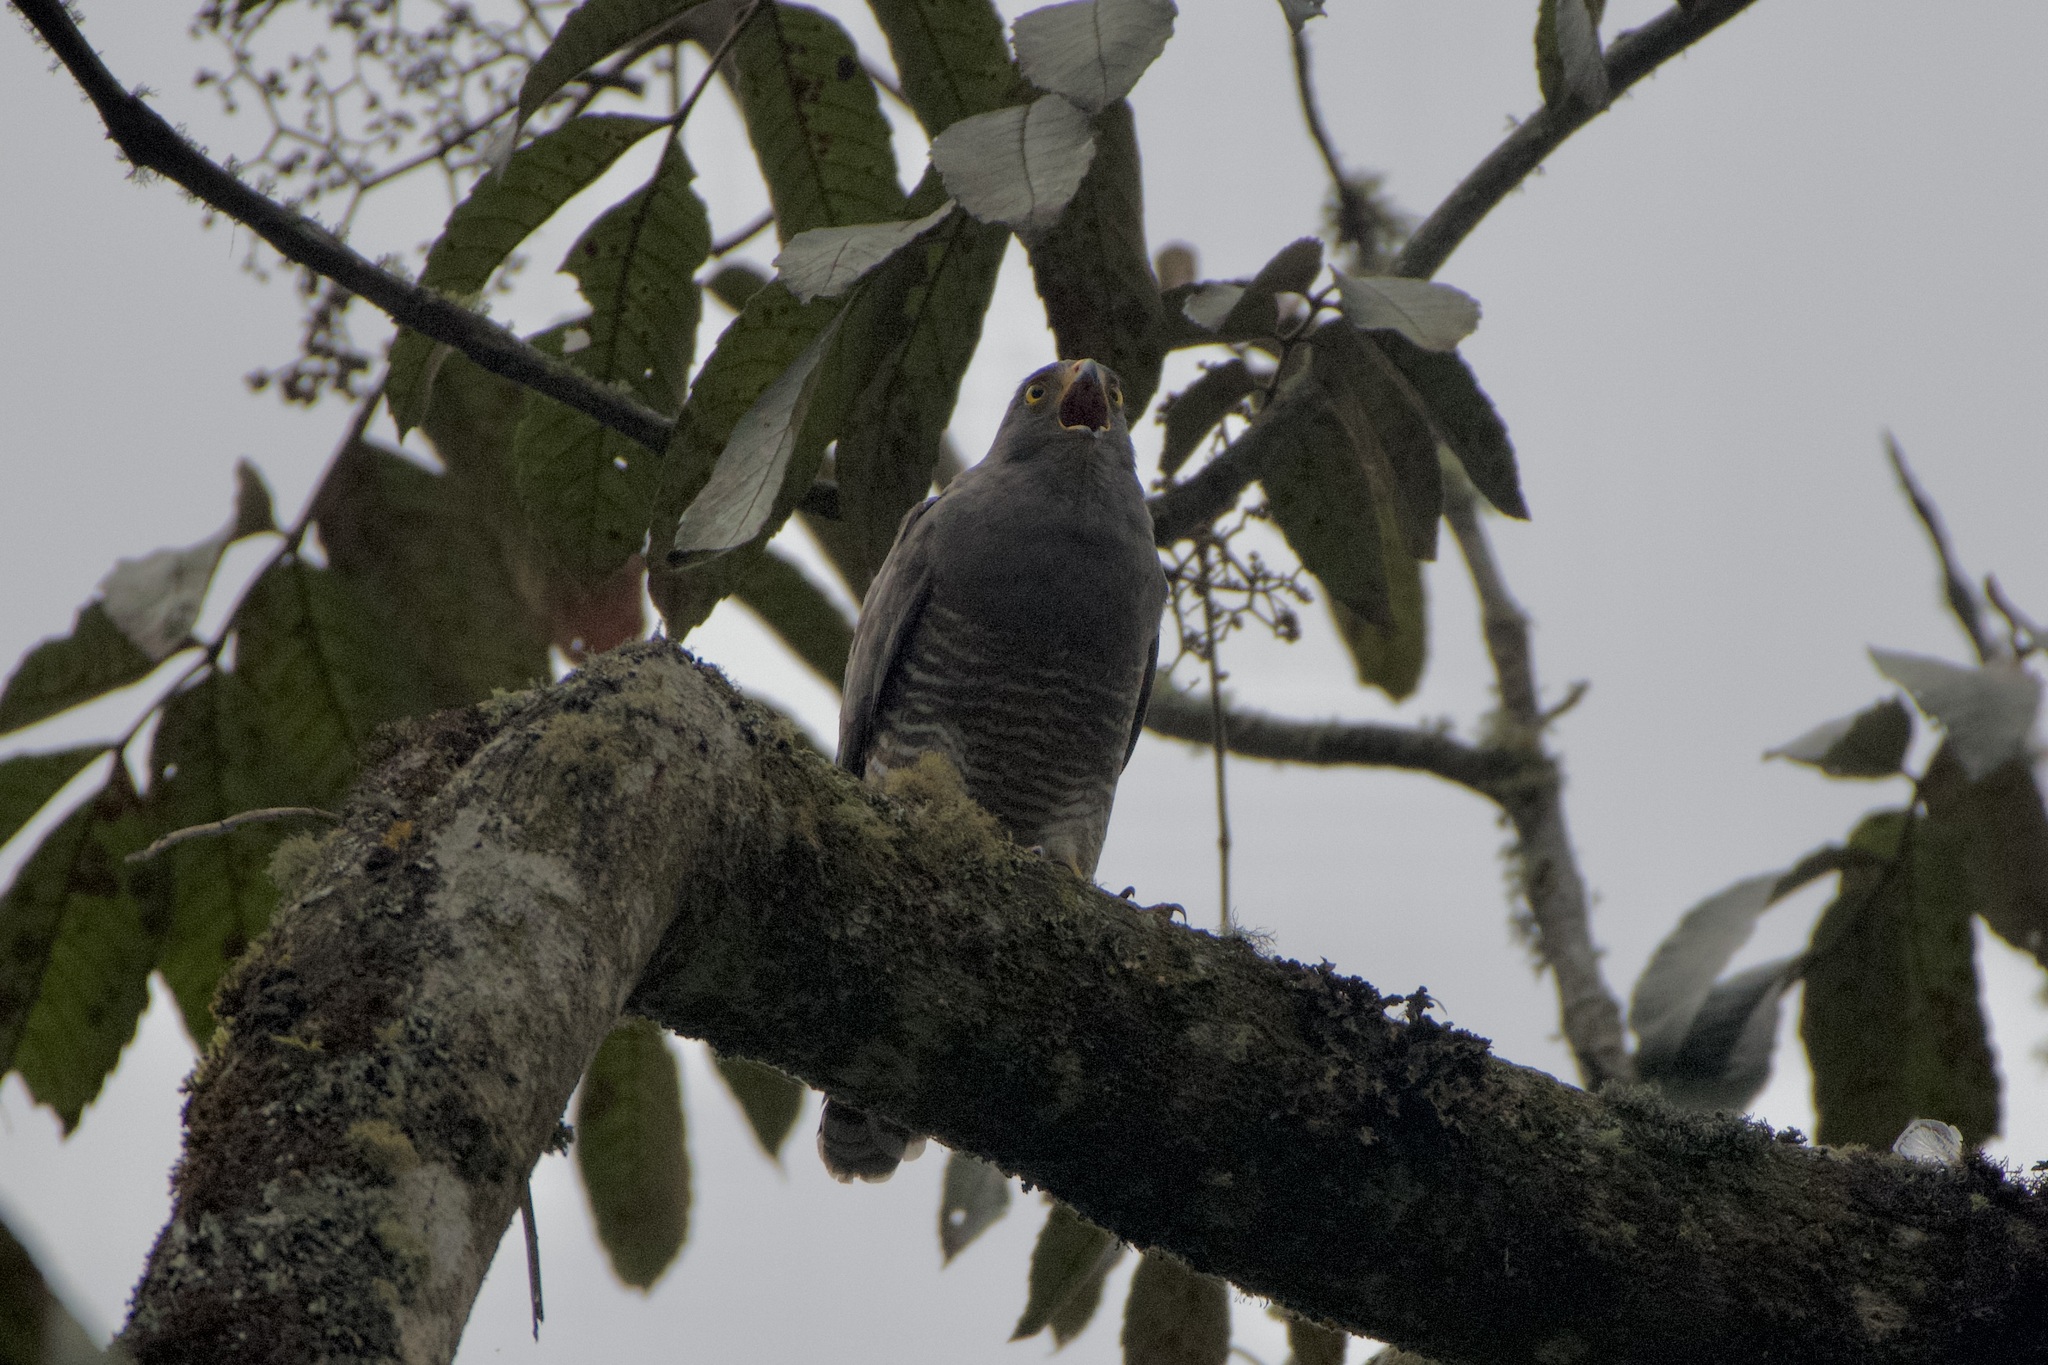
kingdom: Animalia
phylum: Chordata
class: Aves
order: Accipitriformes
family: Accipitridae
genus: Rupornis
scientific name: Rupornis magnirostris
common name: Roadside hawk
